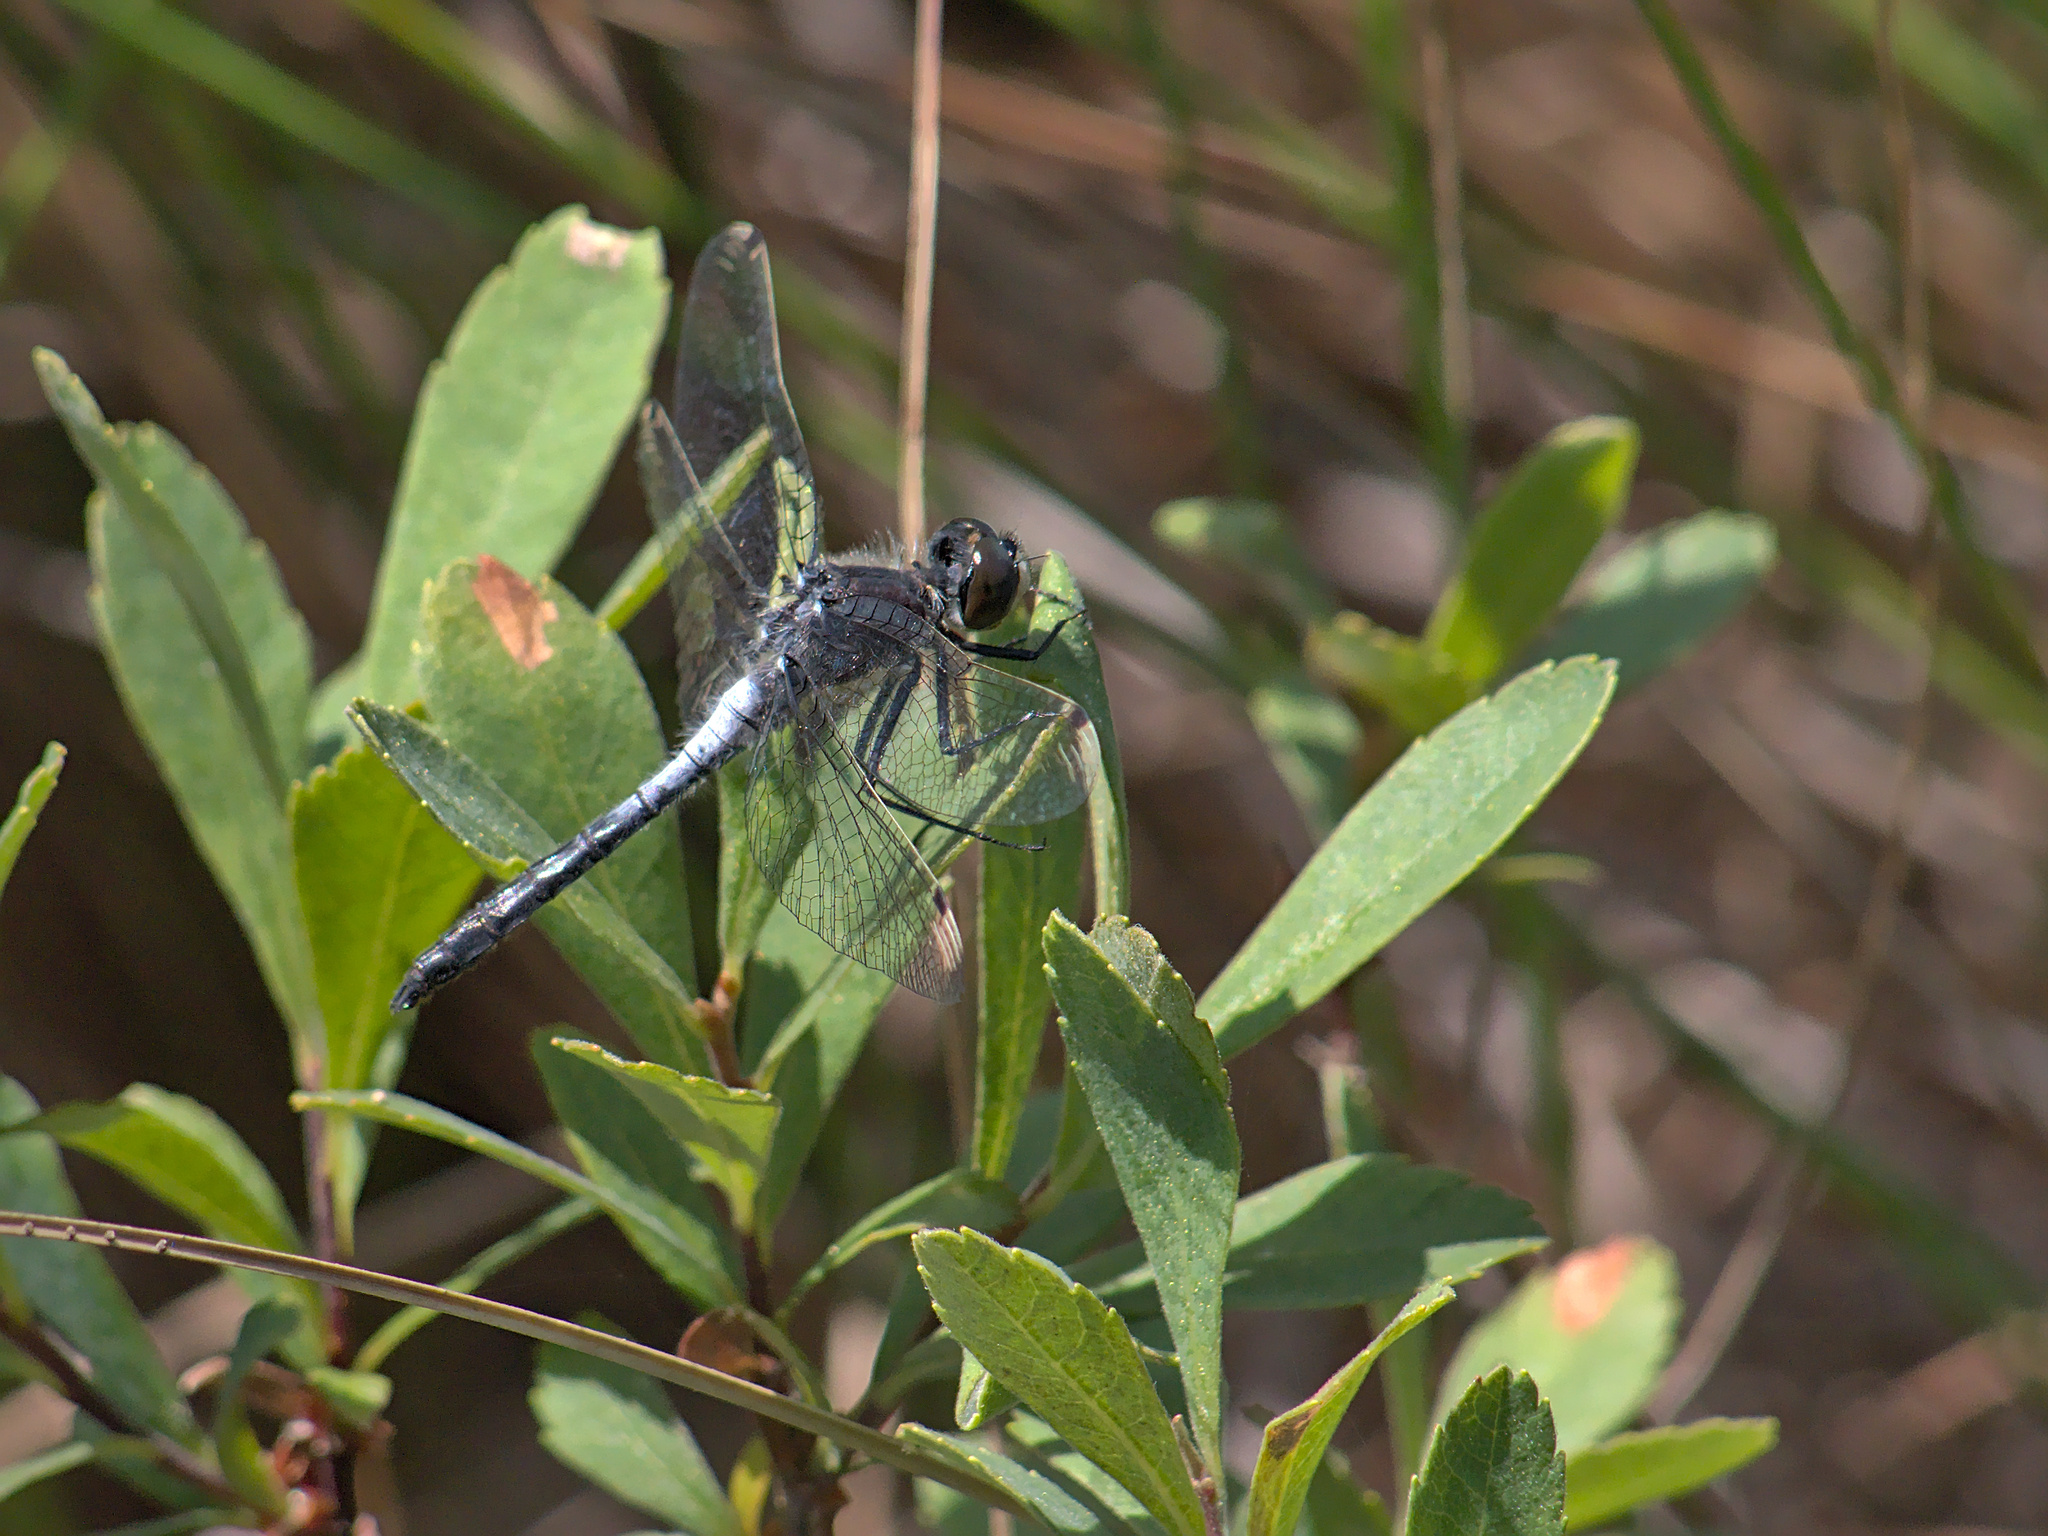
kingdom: Animalia
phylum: Arthropoda
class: Insecta
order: Odonata
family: Libellulidae
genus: Leucorrhinia
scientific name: Leucorrhinia frigida
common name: Frosted whiteface
